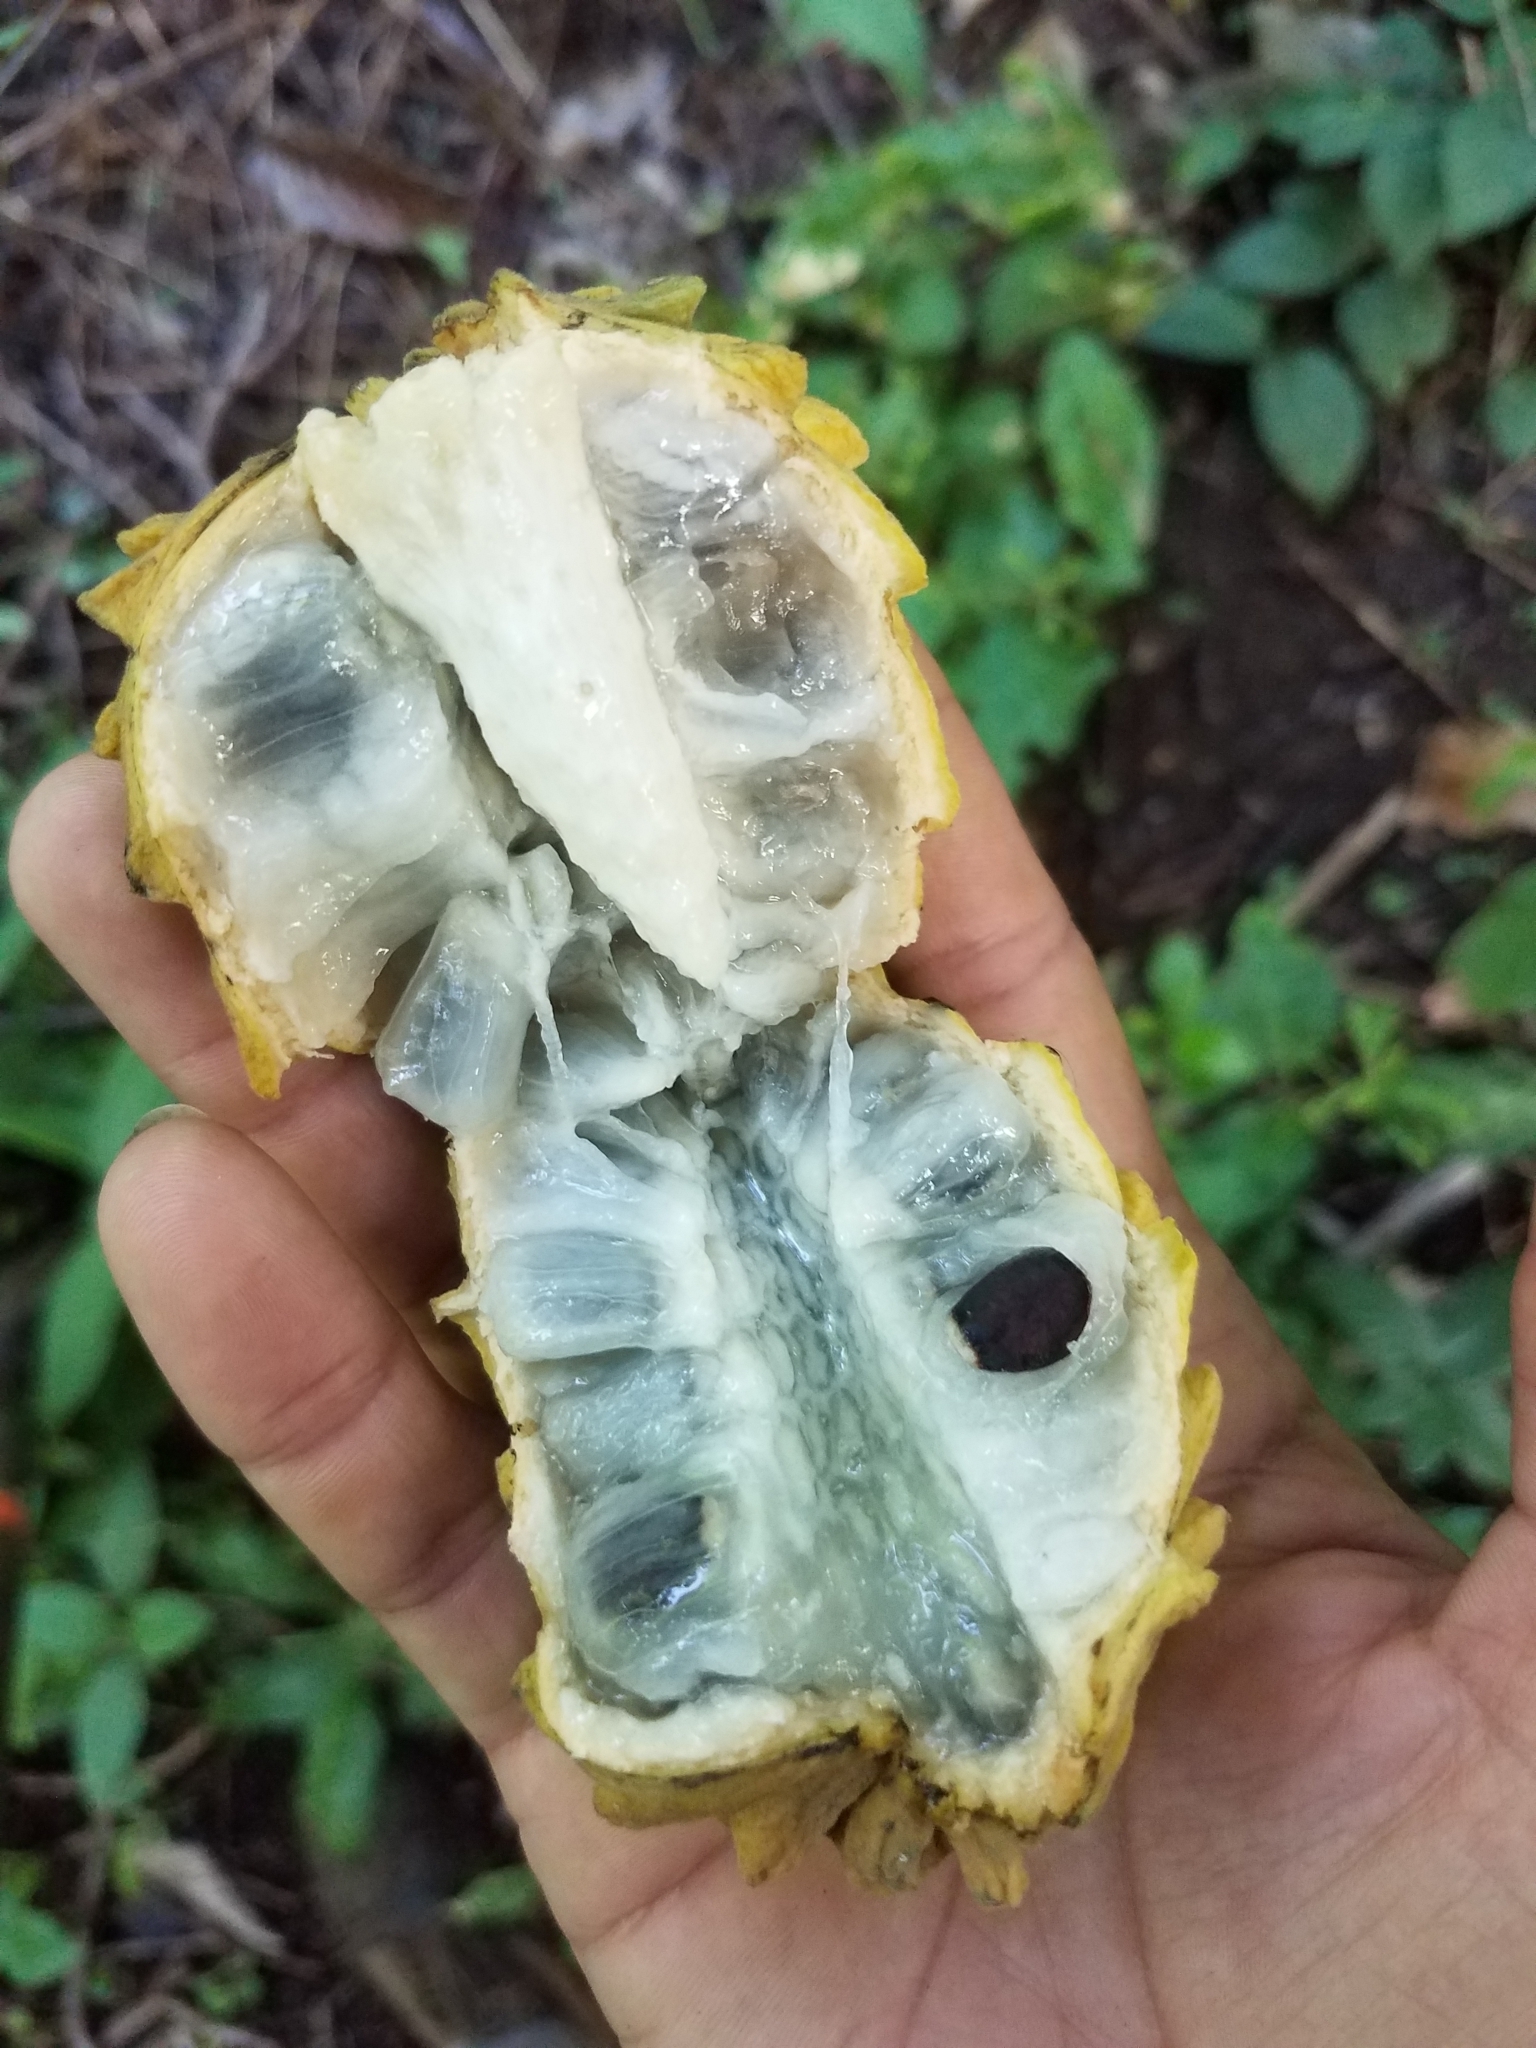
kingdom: Plantae
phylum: Tracheophyta
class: Magnoliopsida
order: Magnoliales
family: Annonaceae
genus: Annona
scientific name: Annona squamosa
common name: Custard-apple
